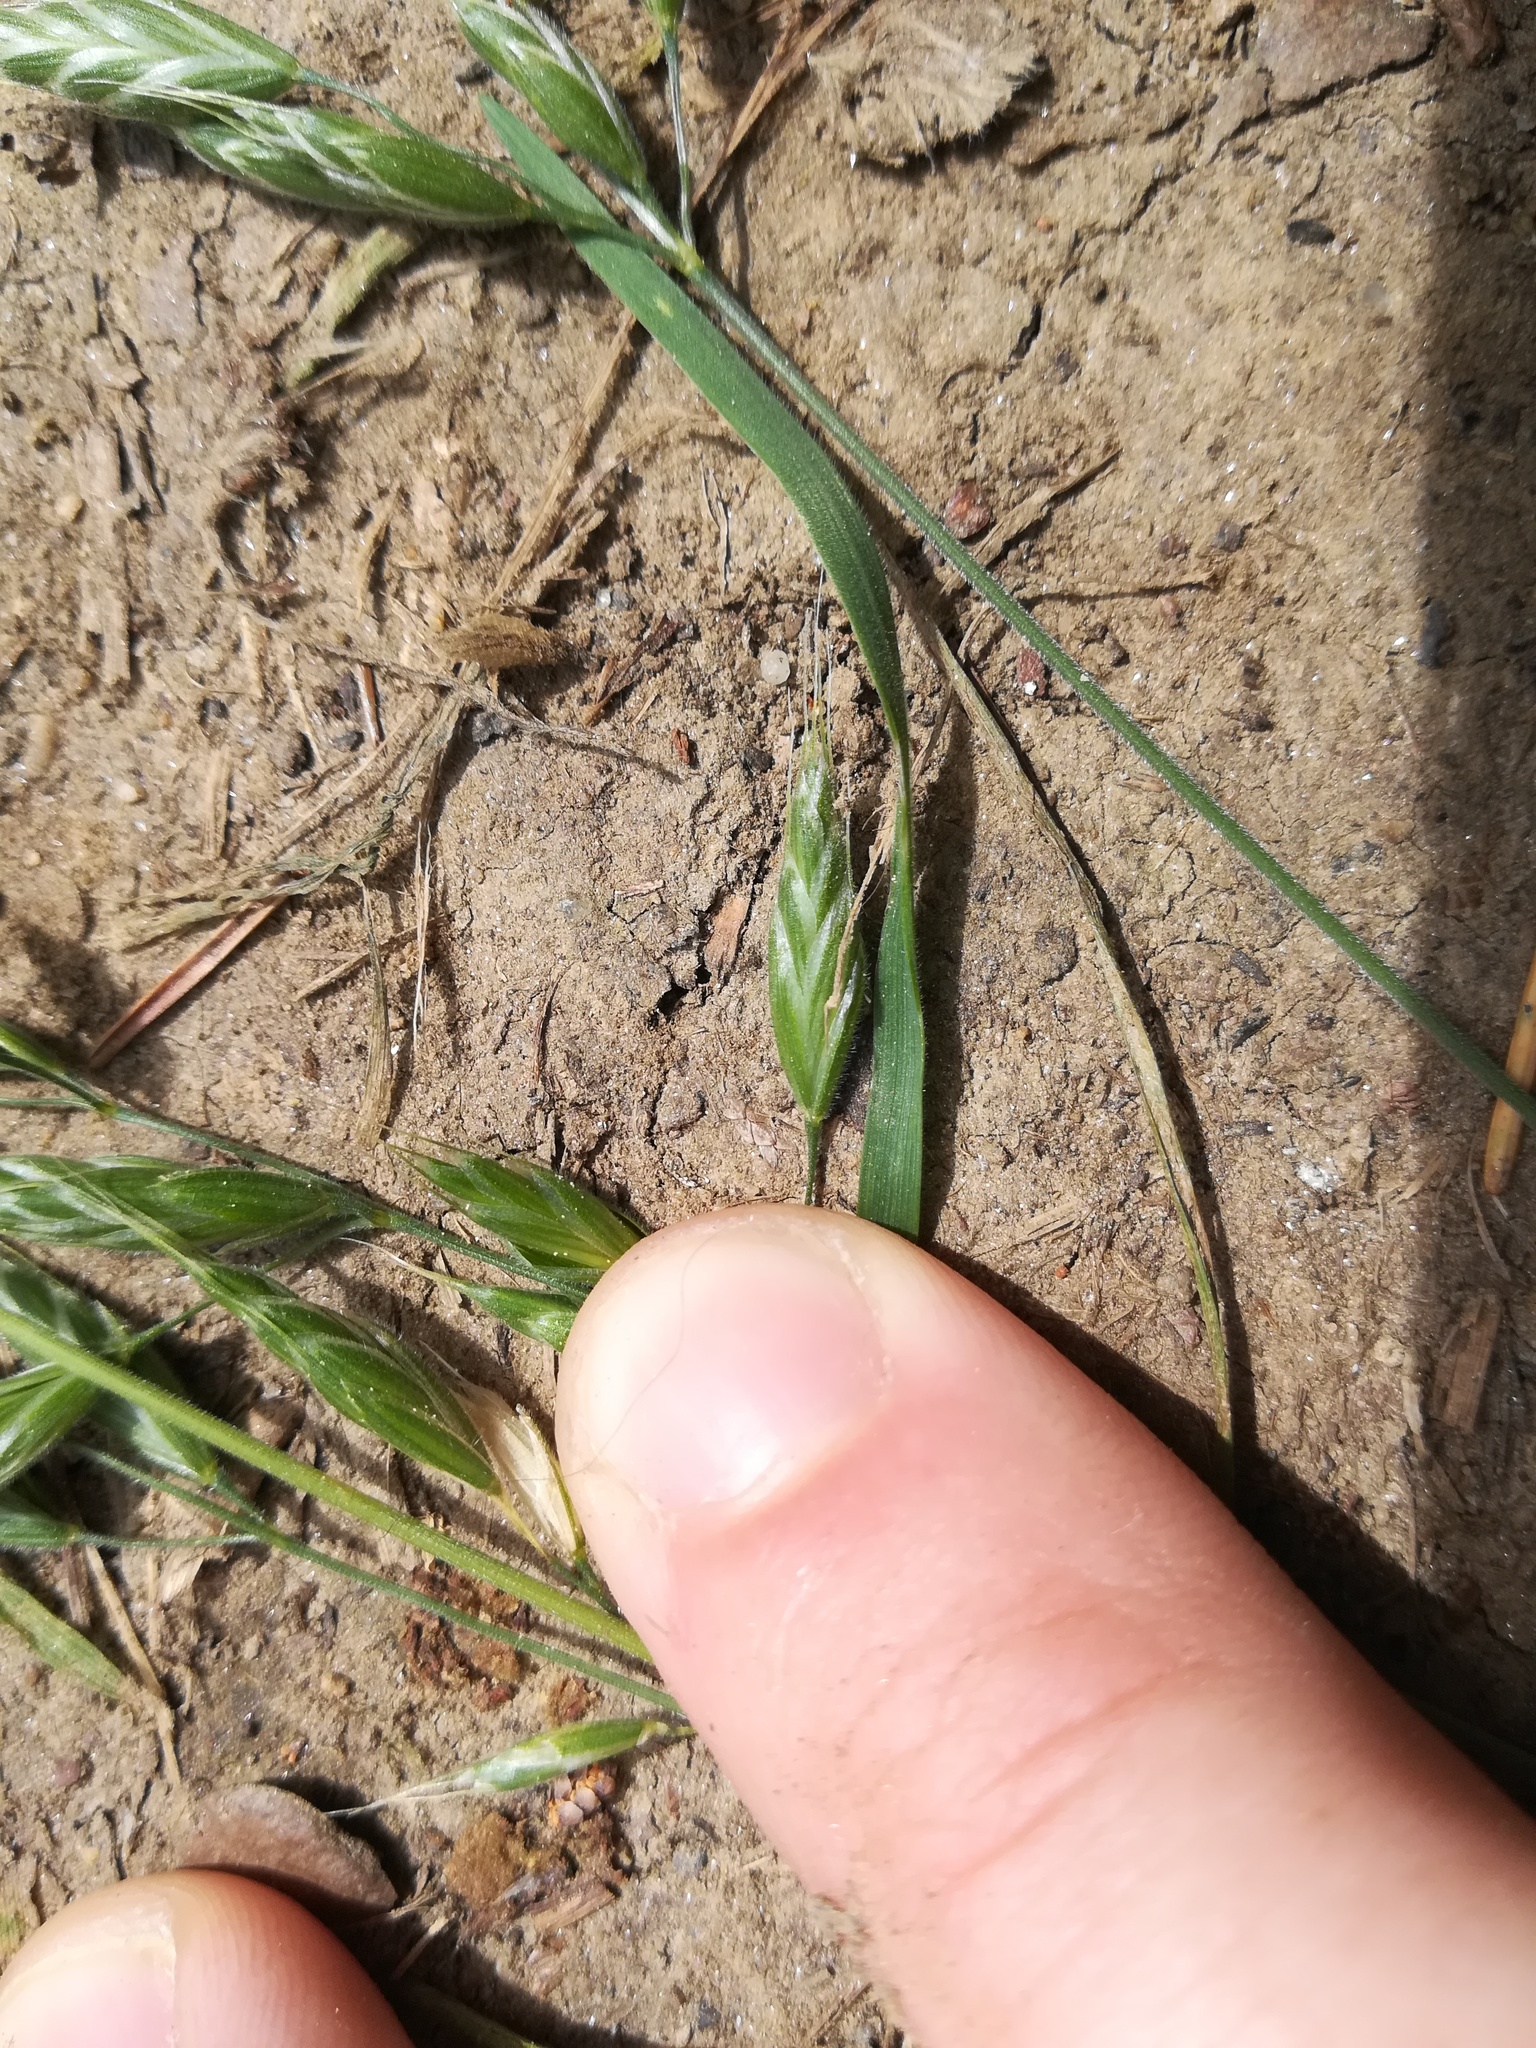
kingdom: Plantae
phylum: Tracheophyta
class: Liliopsida
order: Poales
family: Poaceae
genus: Bromus
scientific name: Bromus hordeaceus
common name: Soft brome
